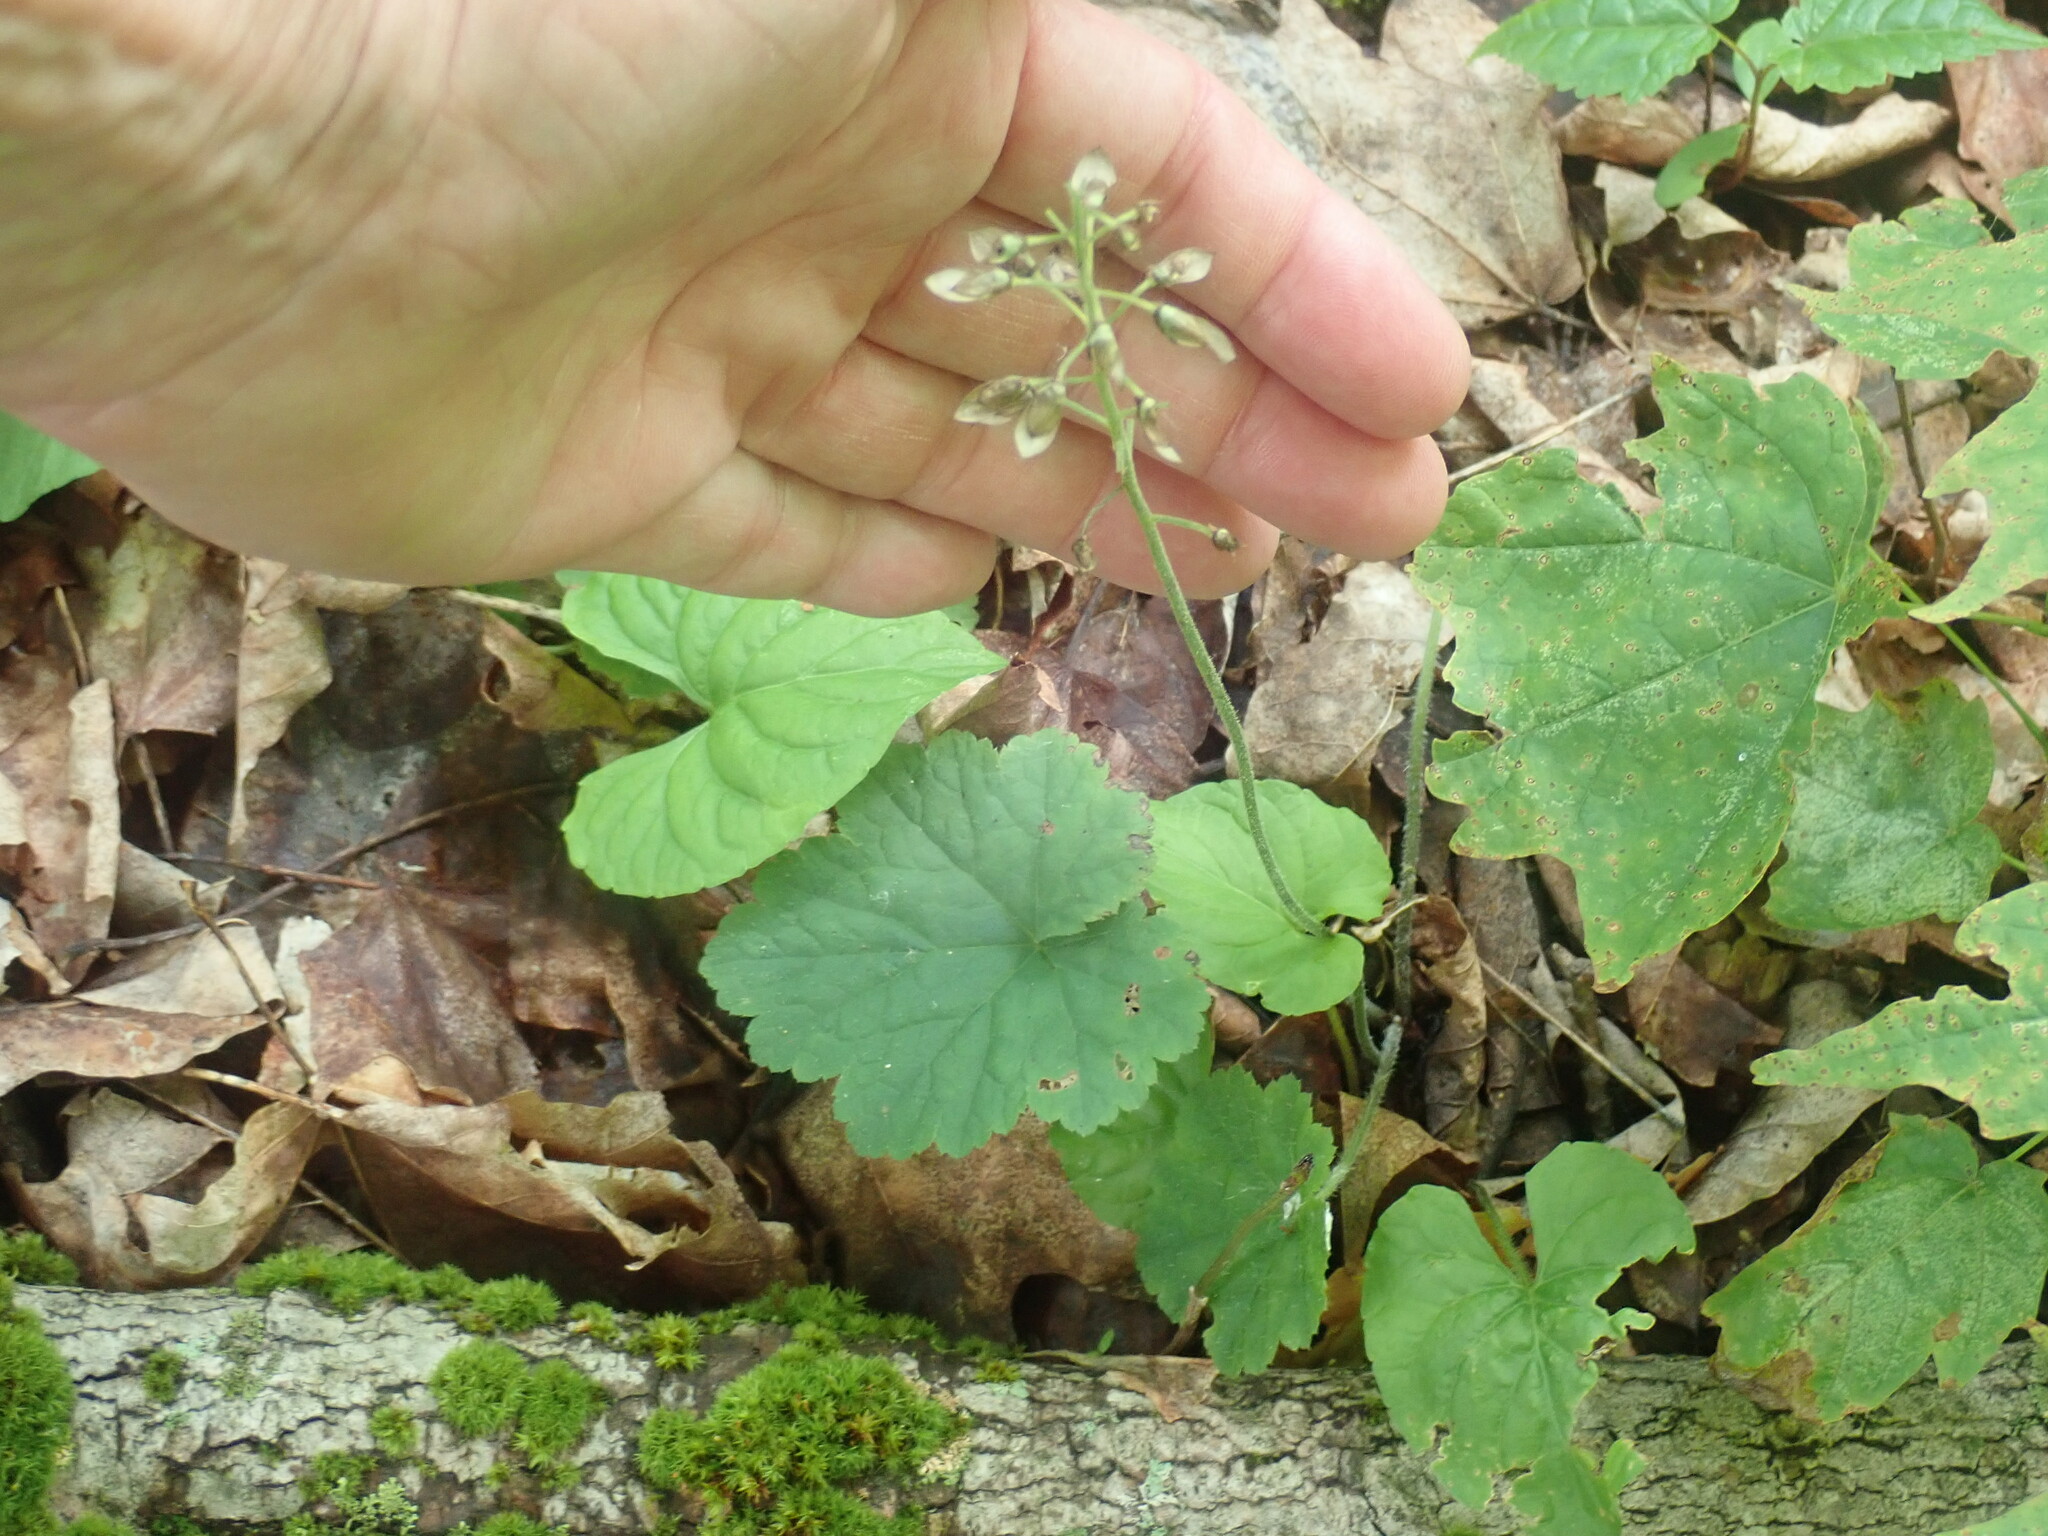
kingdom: Plantae
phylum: Tracheophyta
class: Magnoliopsida
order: Saxifragales
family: Saxifragaceae
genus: Tiarella
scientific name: Tiarella stolonifera
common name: Stoloniferous foamflower
